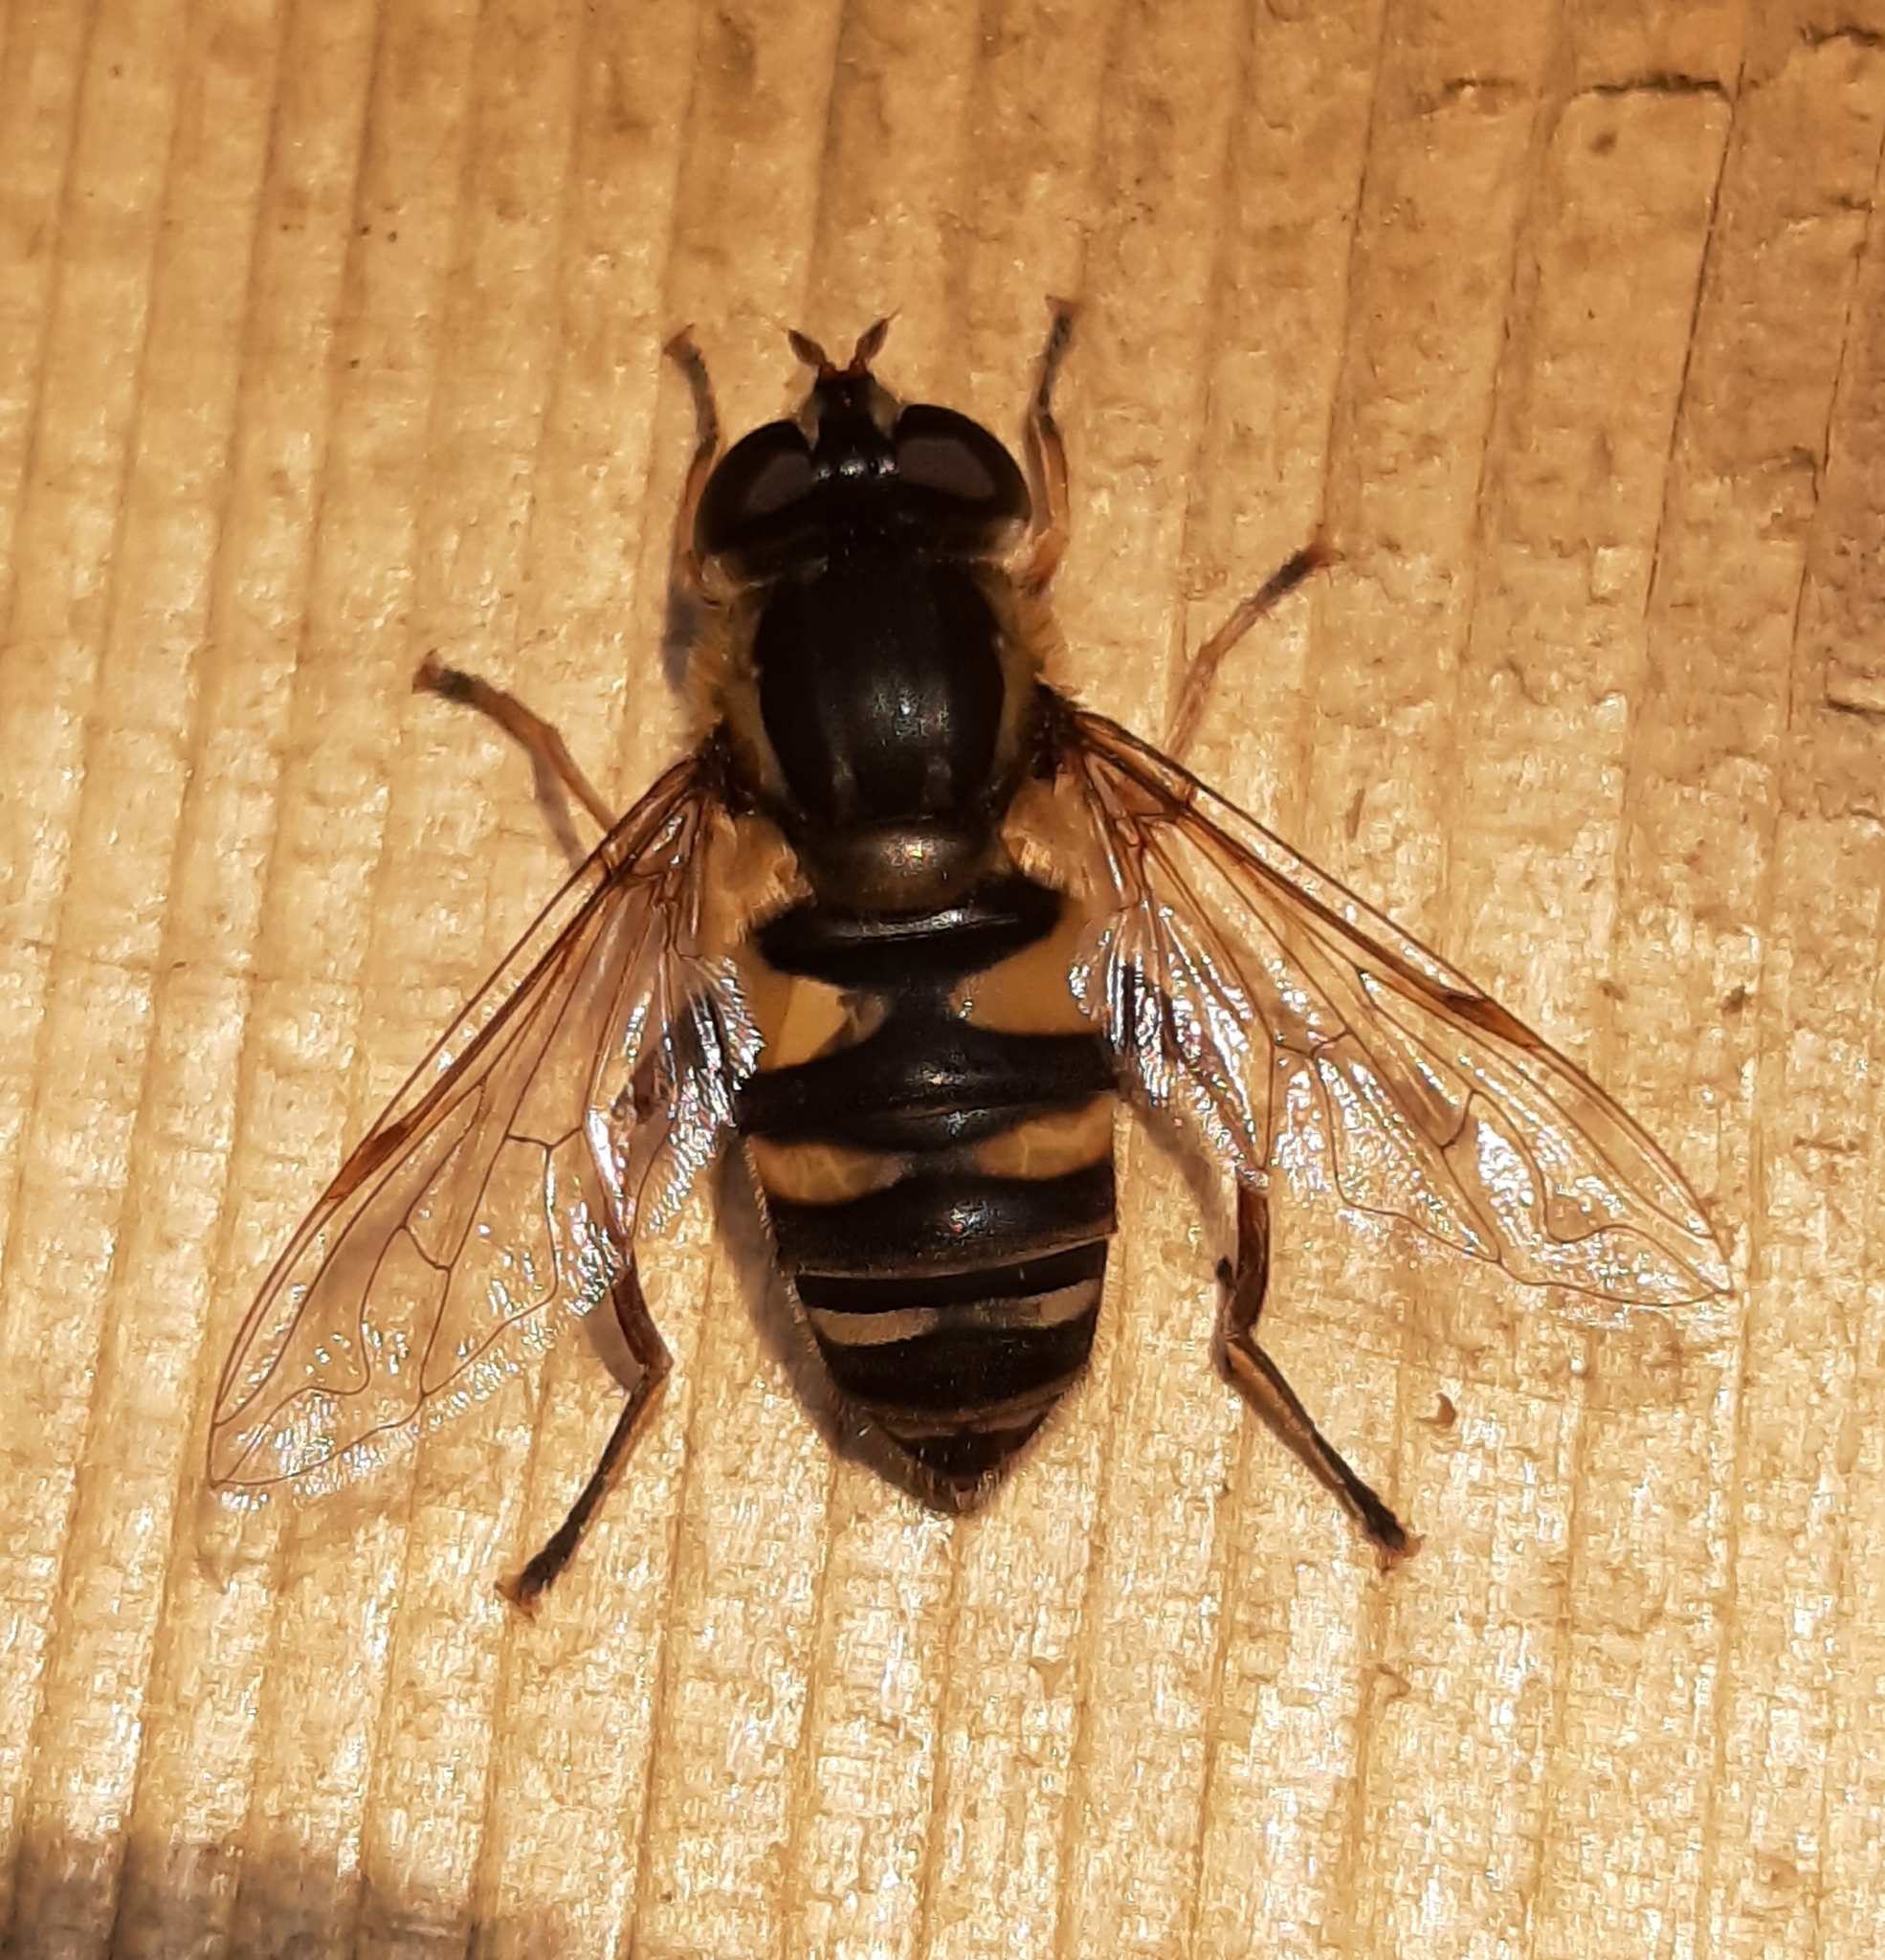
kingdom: Animalia
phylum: Arthropoda
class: Insecta
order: Diptera
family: Syrphidae
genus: Helophilus
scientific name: Helophilus fasciatus
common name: Narrow-headed marsh fly
